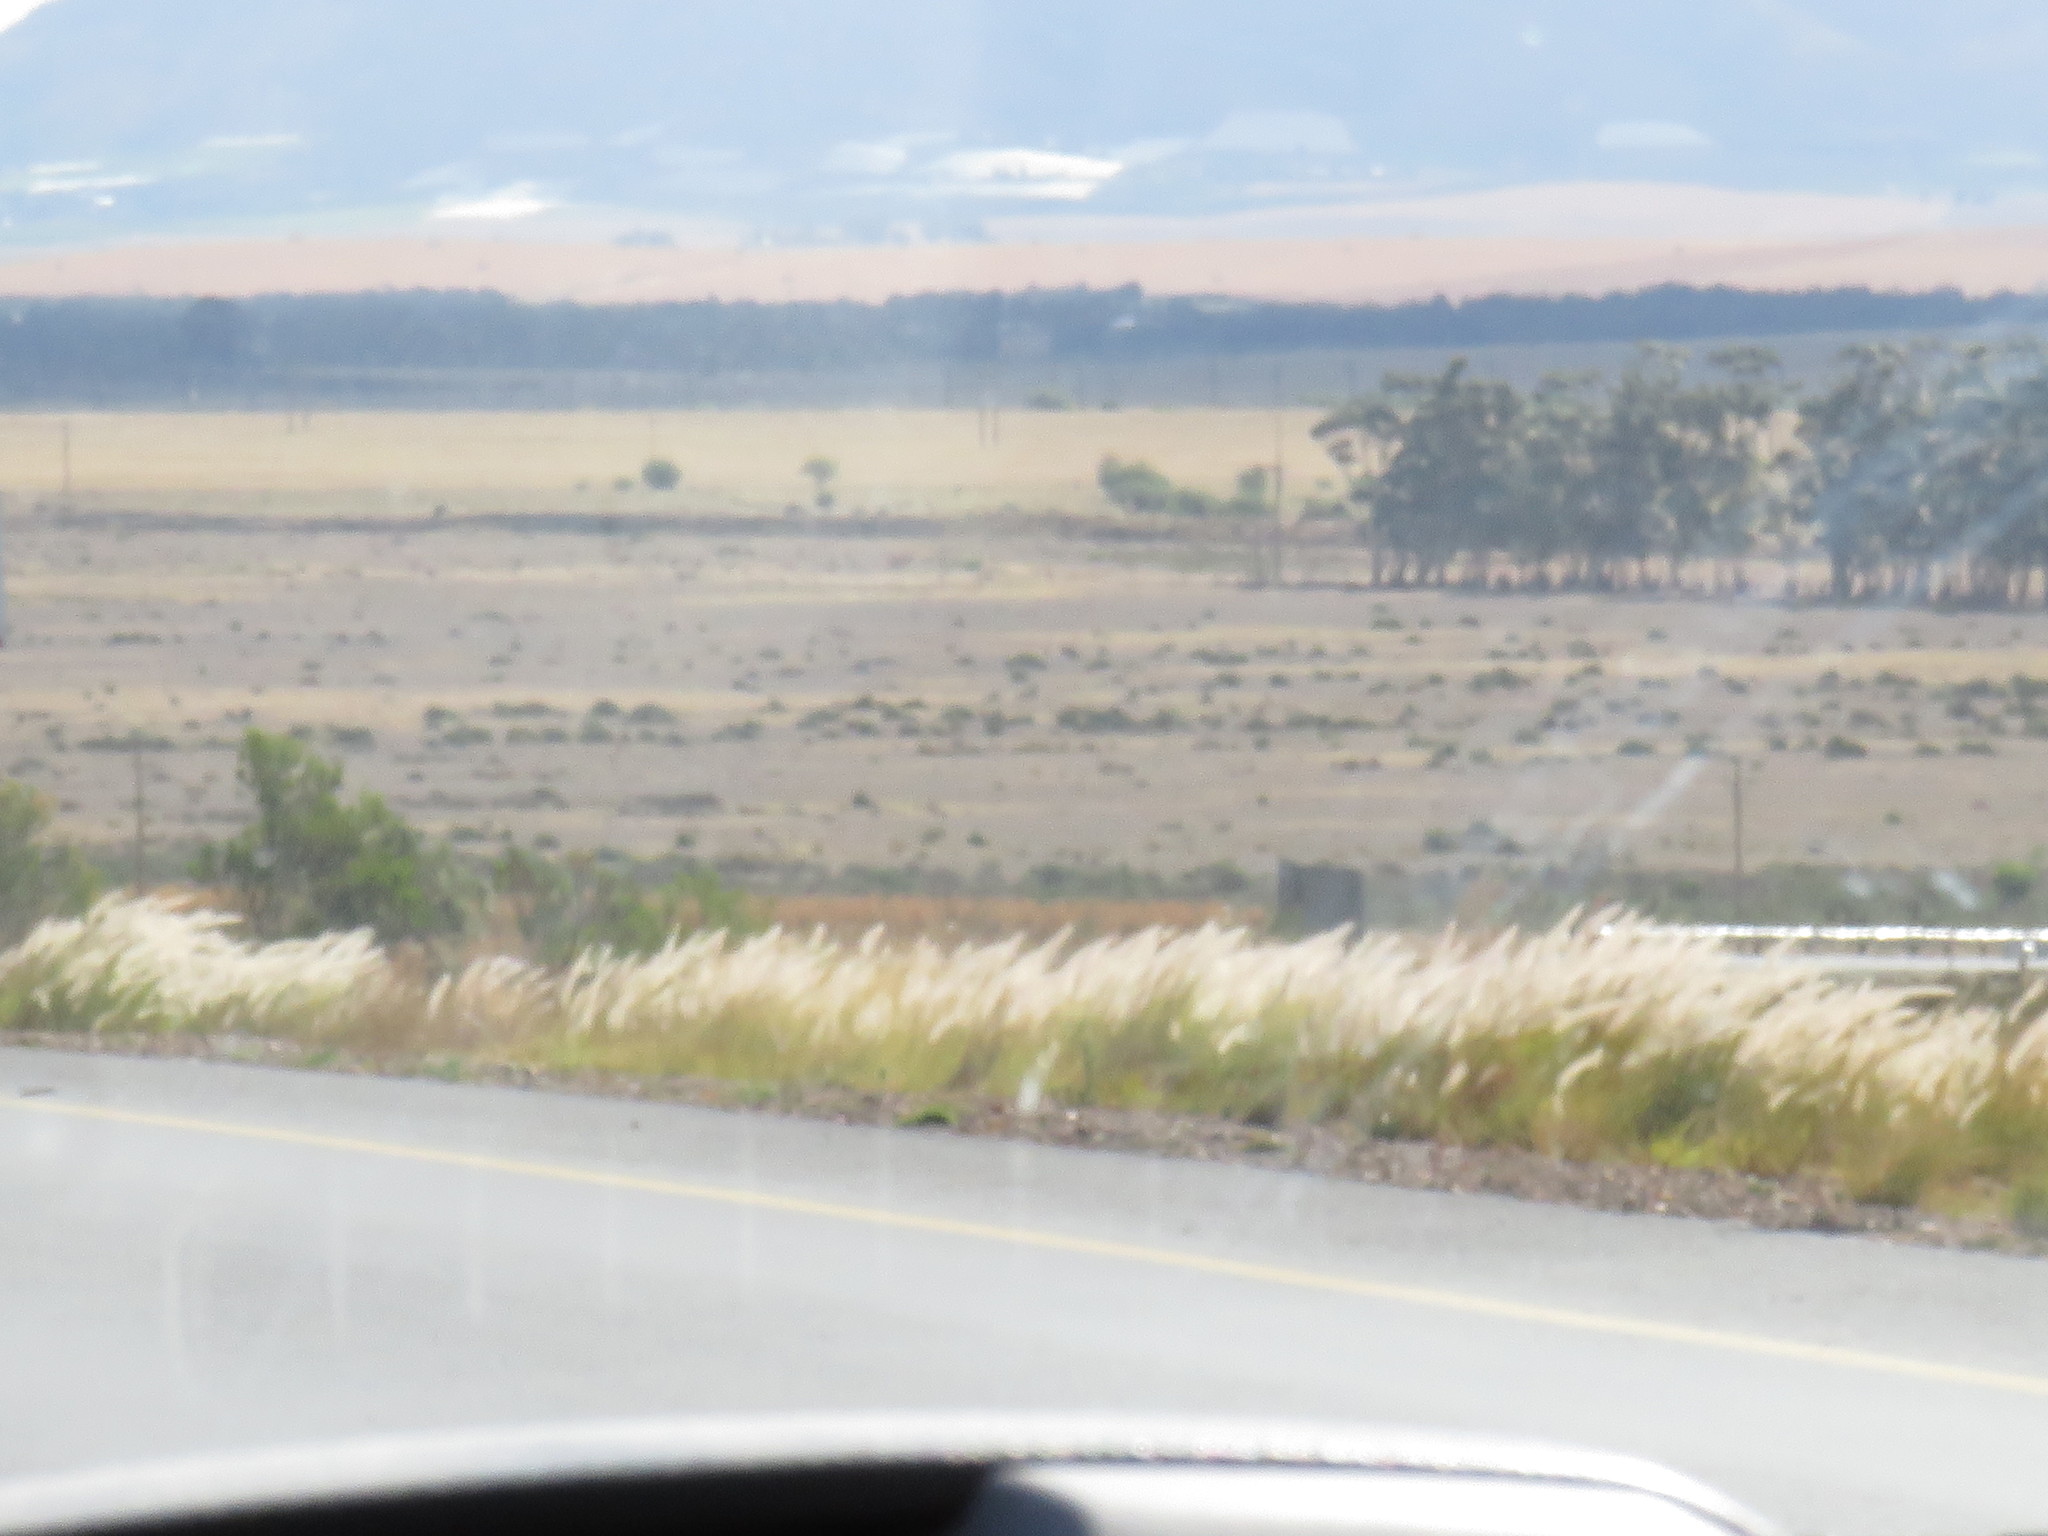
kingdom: Plantae
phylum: Tracheophyta
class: Liliopsida
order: Poales
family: Poaceae
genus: Cenchrus
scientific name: Cenchrus setaceus
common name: Crimson fountaingrass
